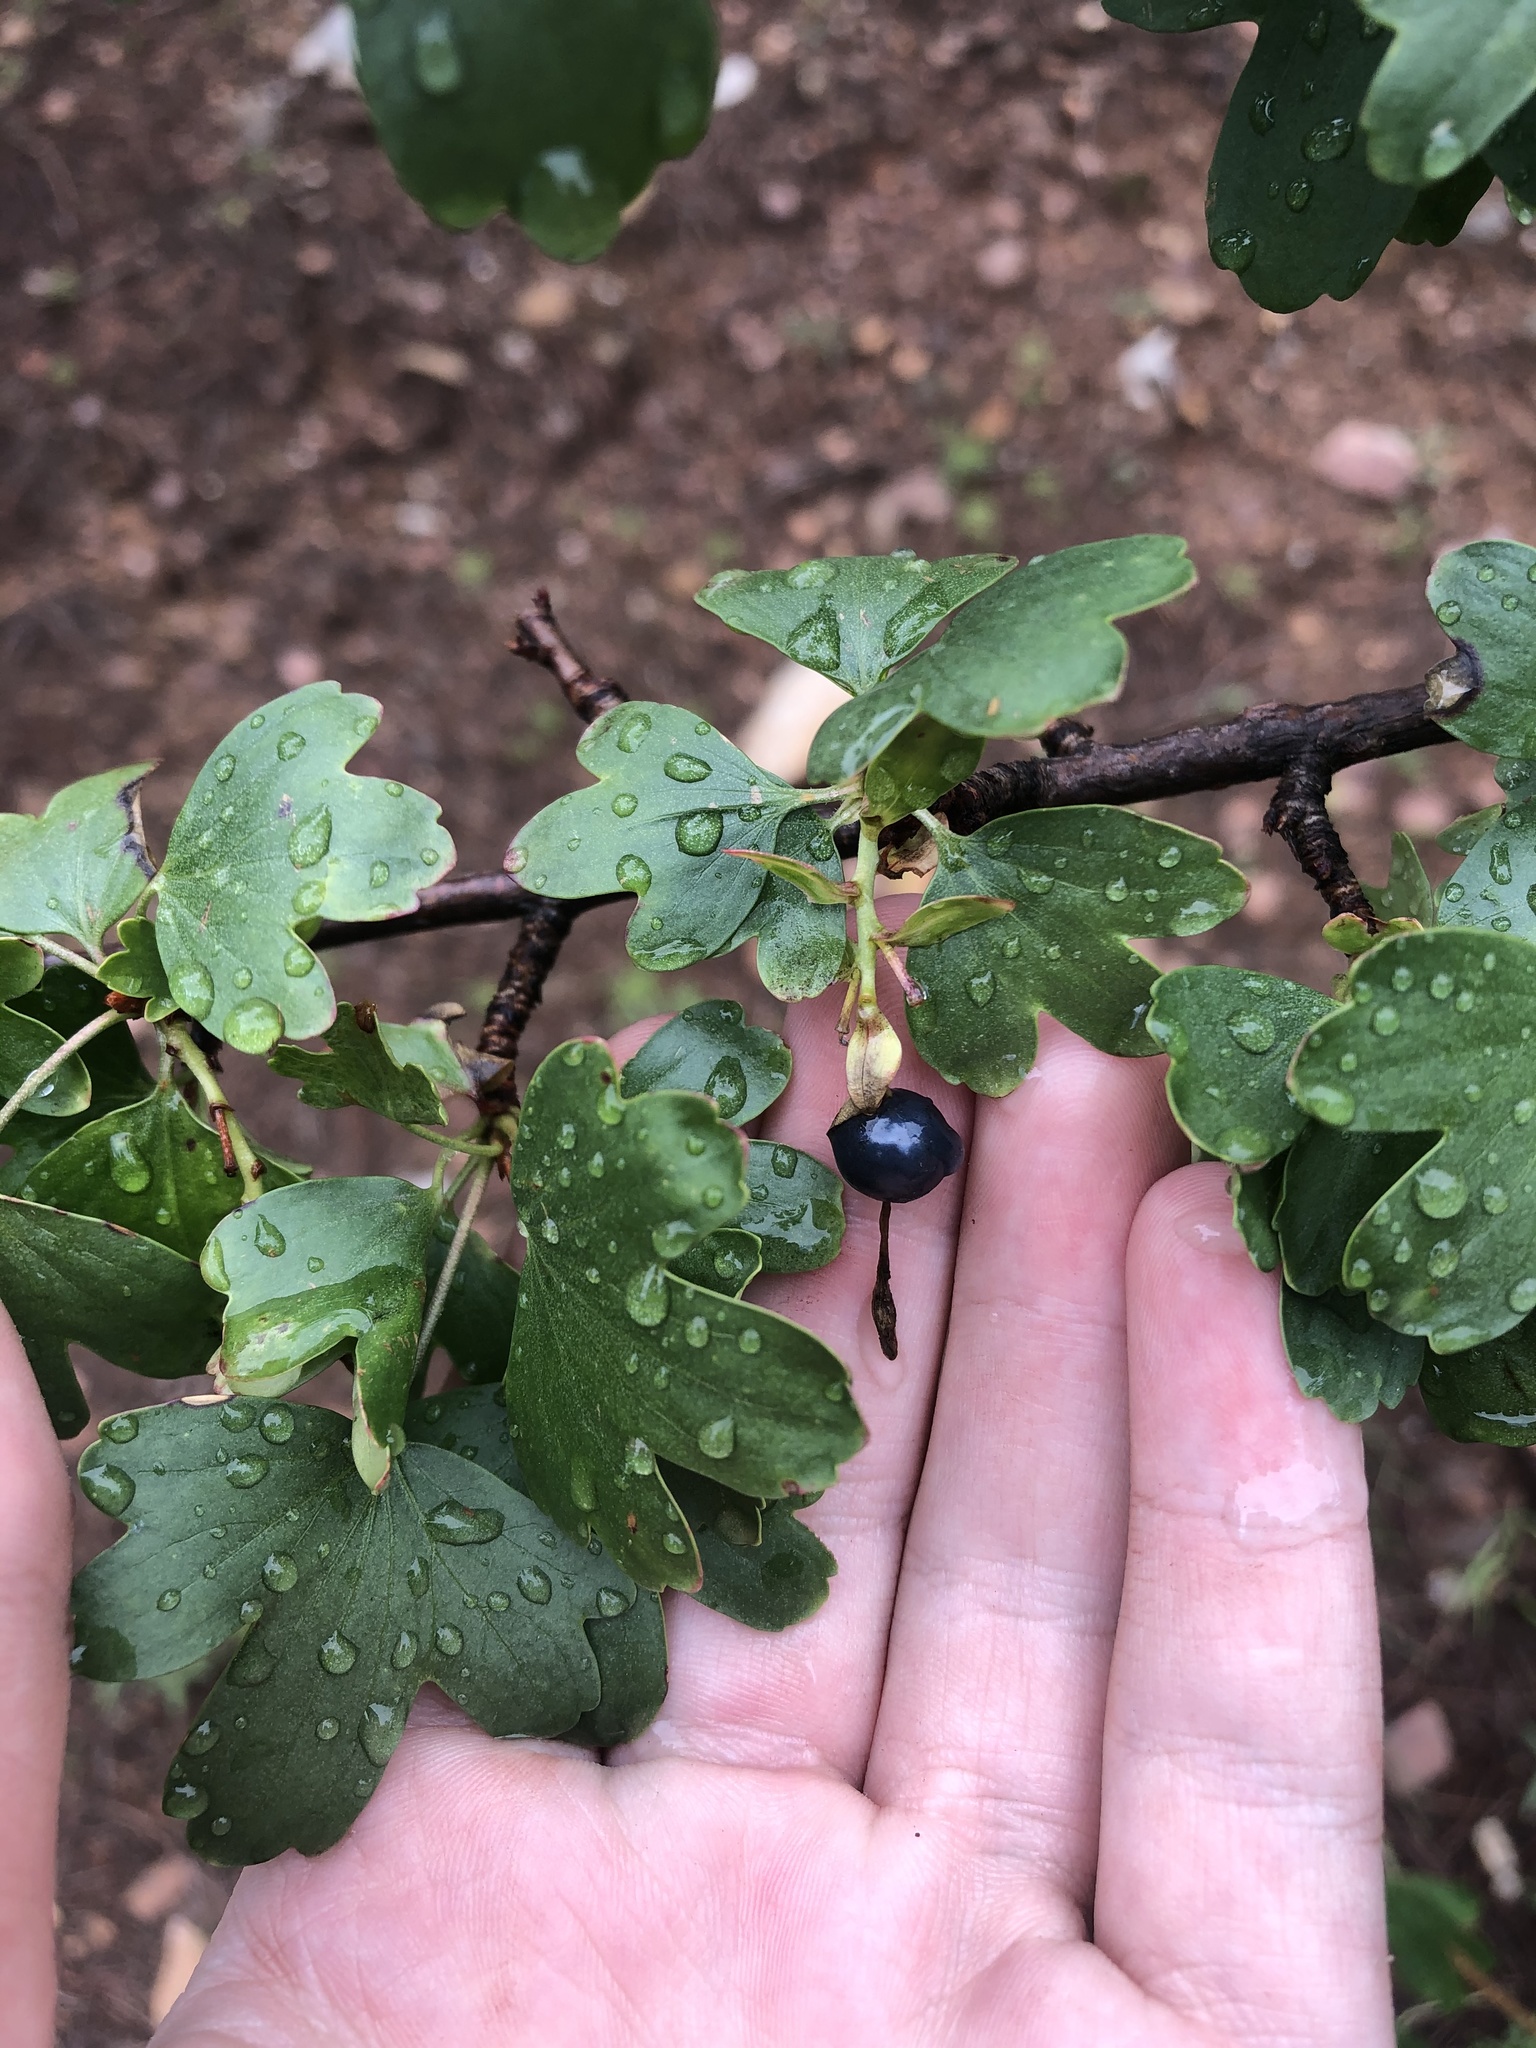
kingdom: Plantae
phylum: Tracheophyta
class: Magnoliopsida
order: Saxifragales
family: Grossulariaceae
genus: Ribes
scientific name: Ribes aureum
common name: Golden currant
